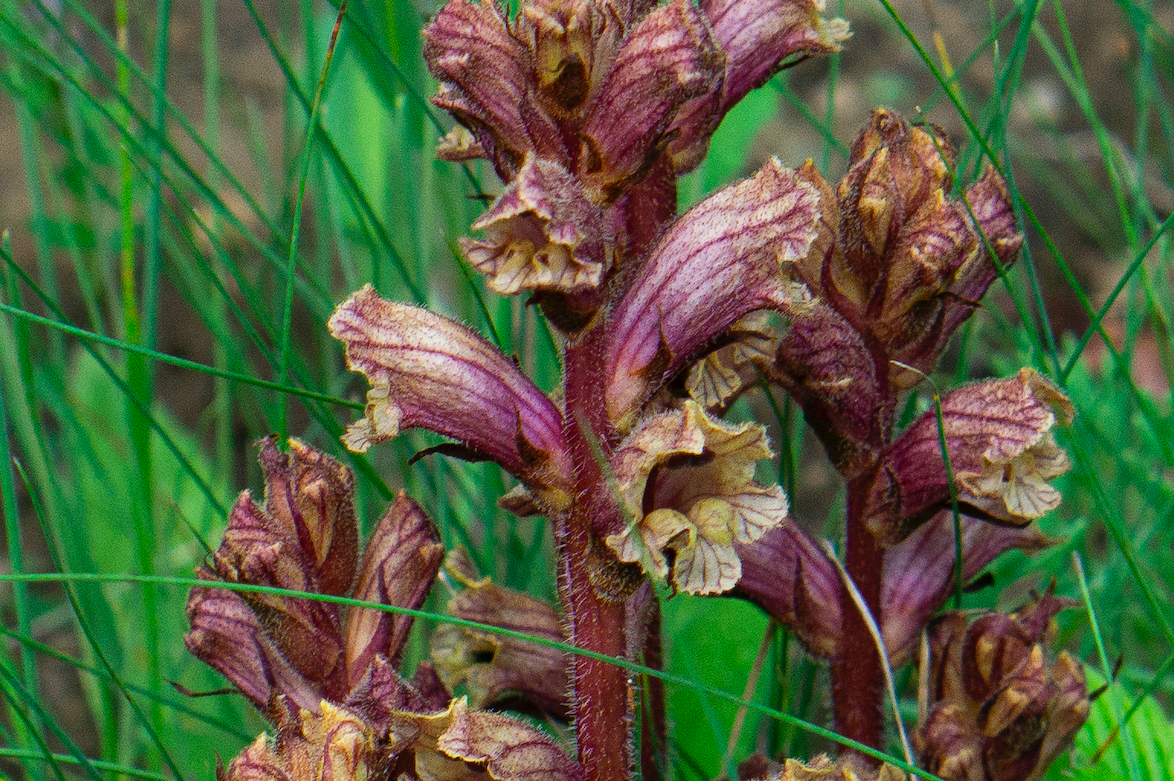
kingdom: Plantae
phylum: Tracheophyta
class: Magnoliopsida
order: Lamiales
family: Orobanchaceae
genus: Orobanche
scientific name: Orobanche alba
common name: Thyme broomrape
